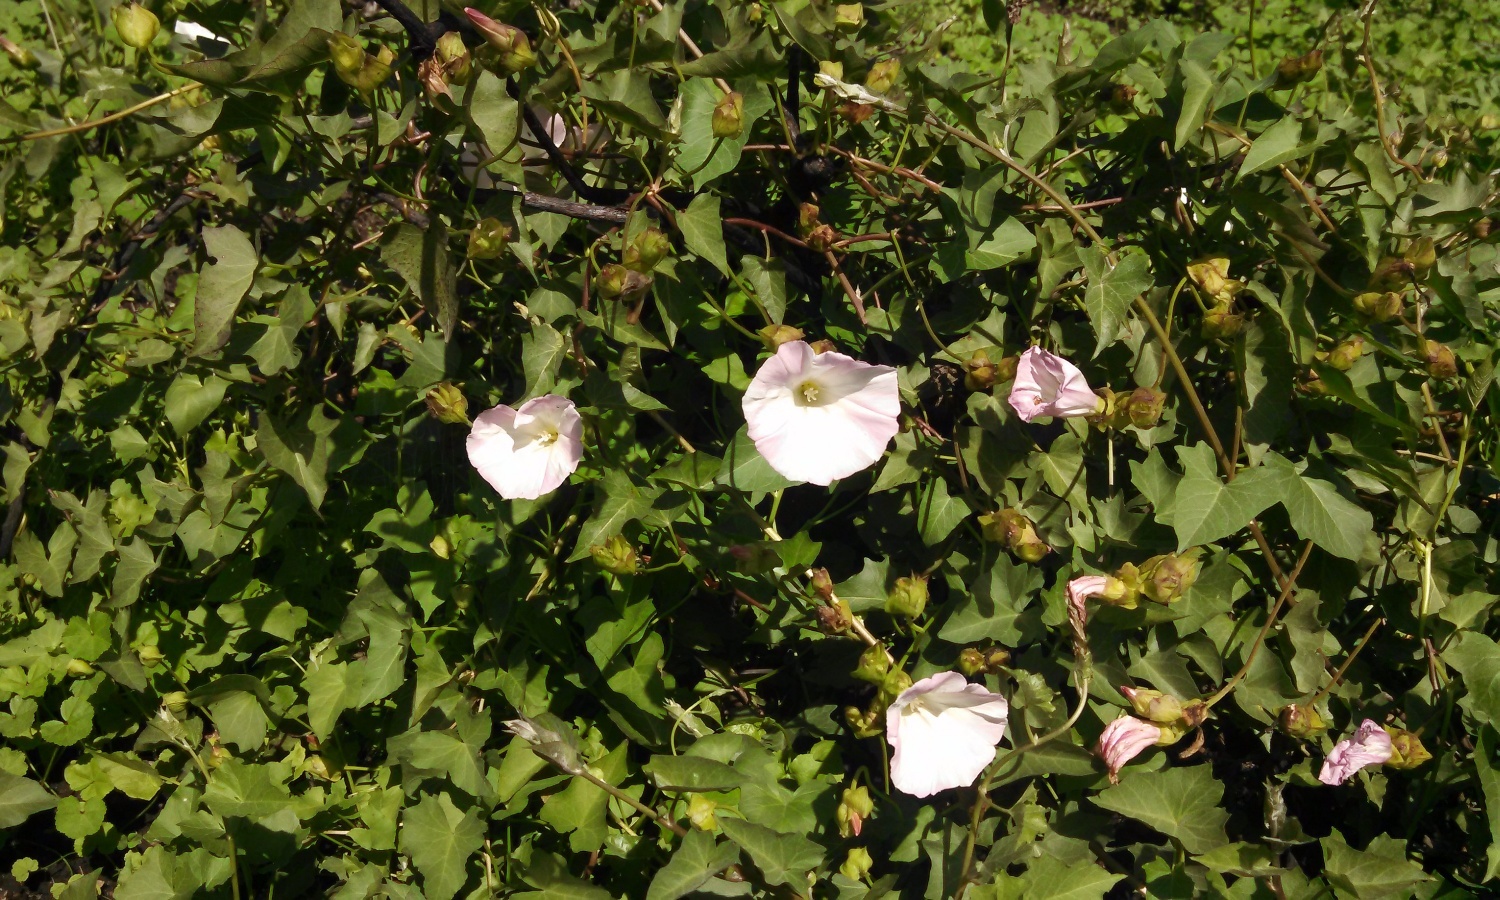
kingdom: Plantae
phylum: Tracheophyta
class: Magnoliopsida
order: Solanales
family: Convolvulaceae
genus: Calystegia
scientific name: Calystegia macrostegia
